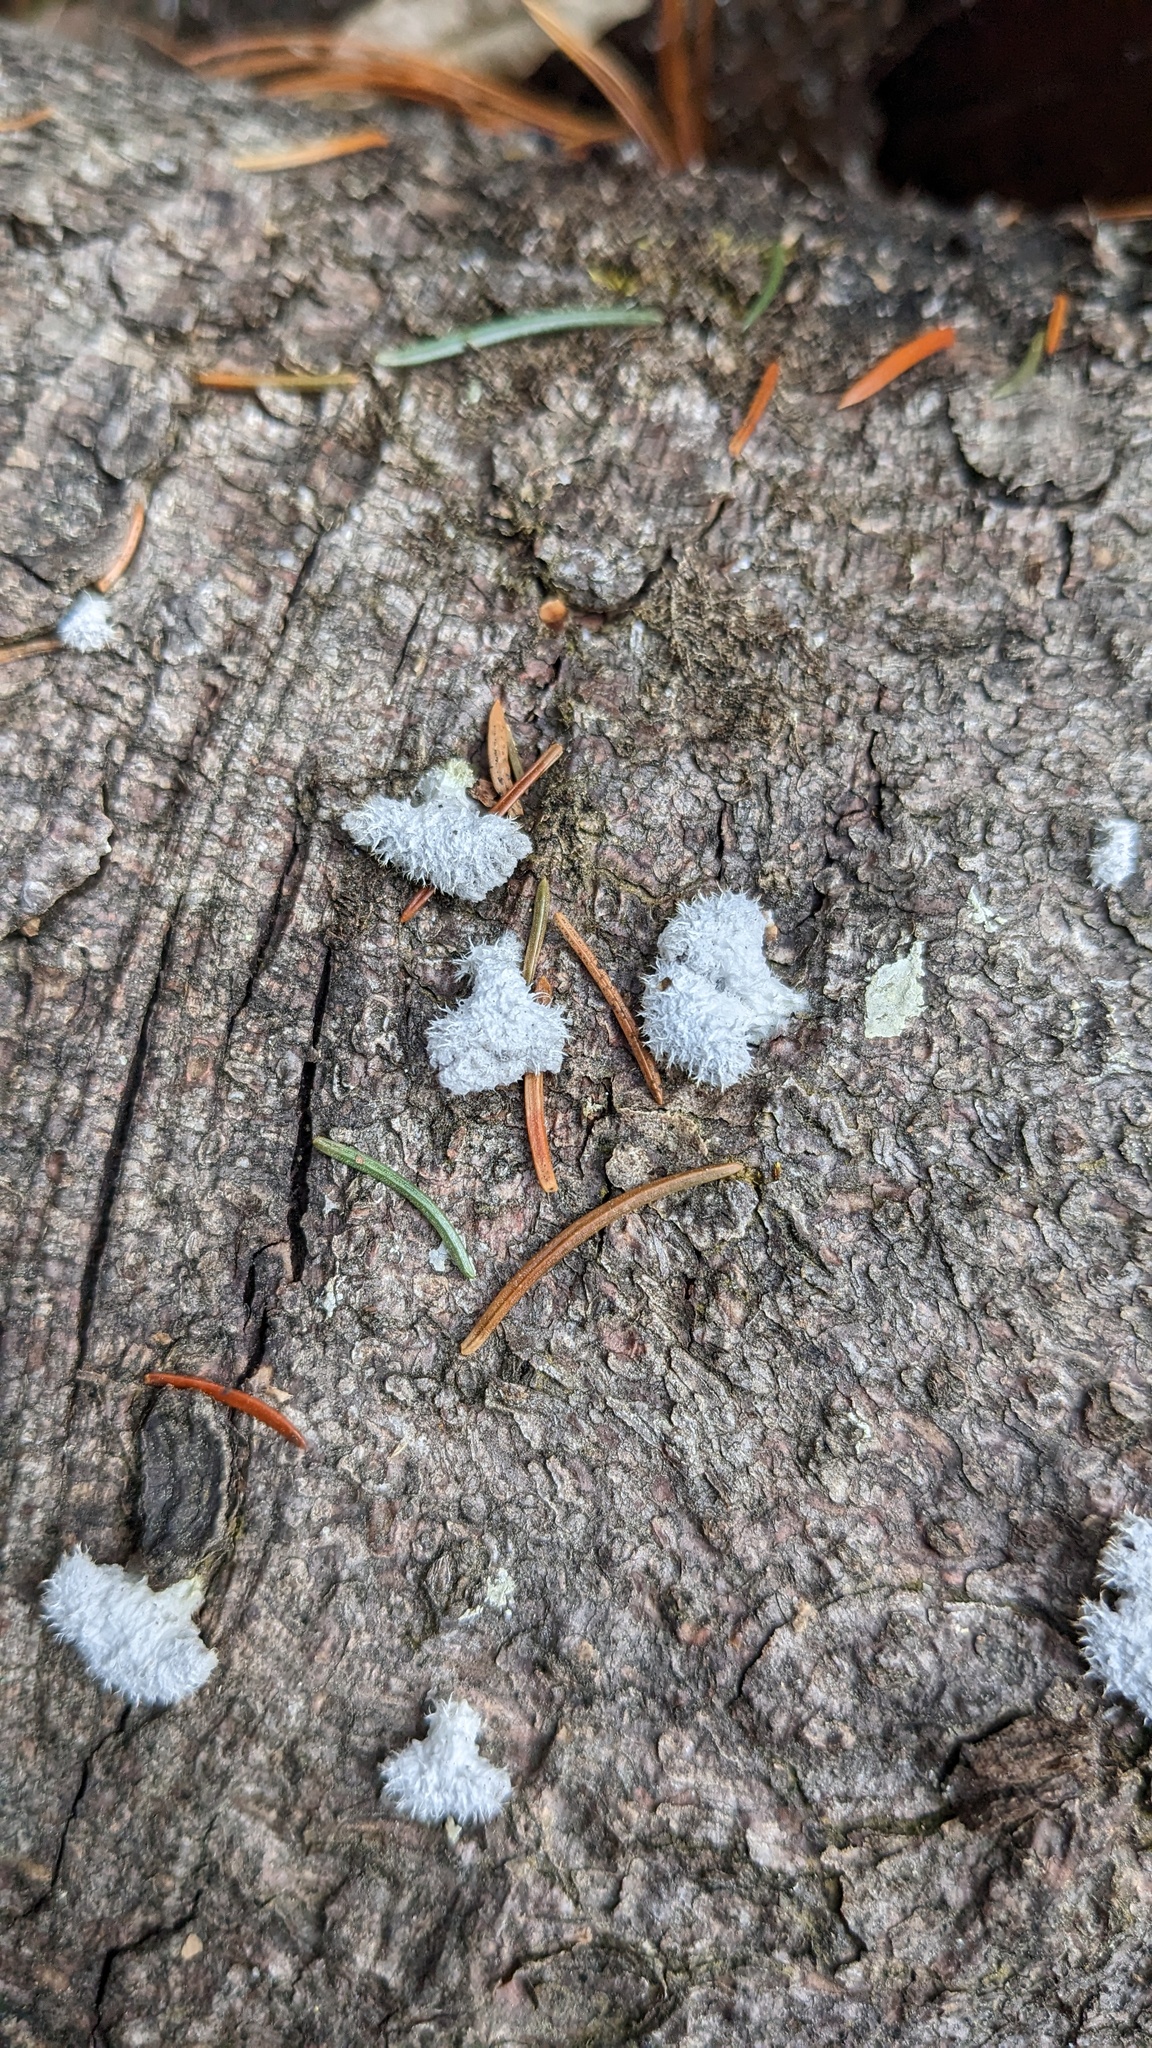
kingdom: Fungi
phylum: Basidiomycota
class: Agaricomycetes
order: Agaricales
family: Schizophyllaceae
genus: Schizophyllum
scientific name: Schizophyllum commune
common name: Common porecrust
